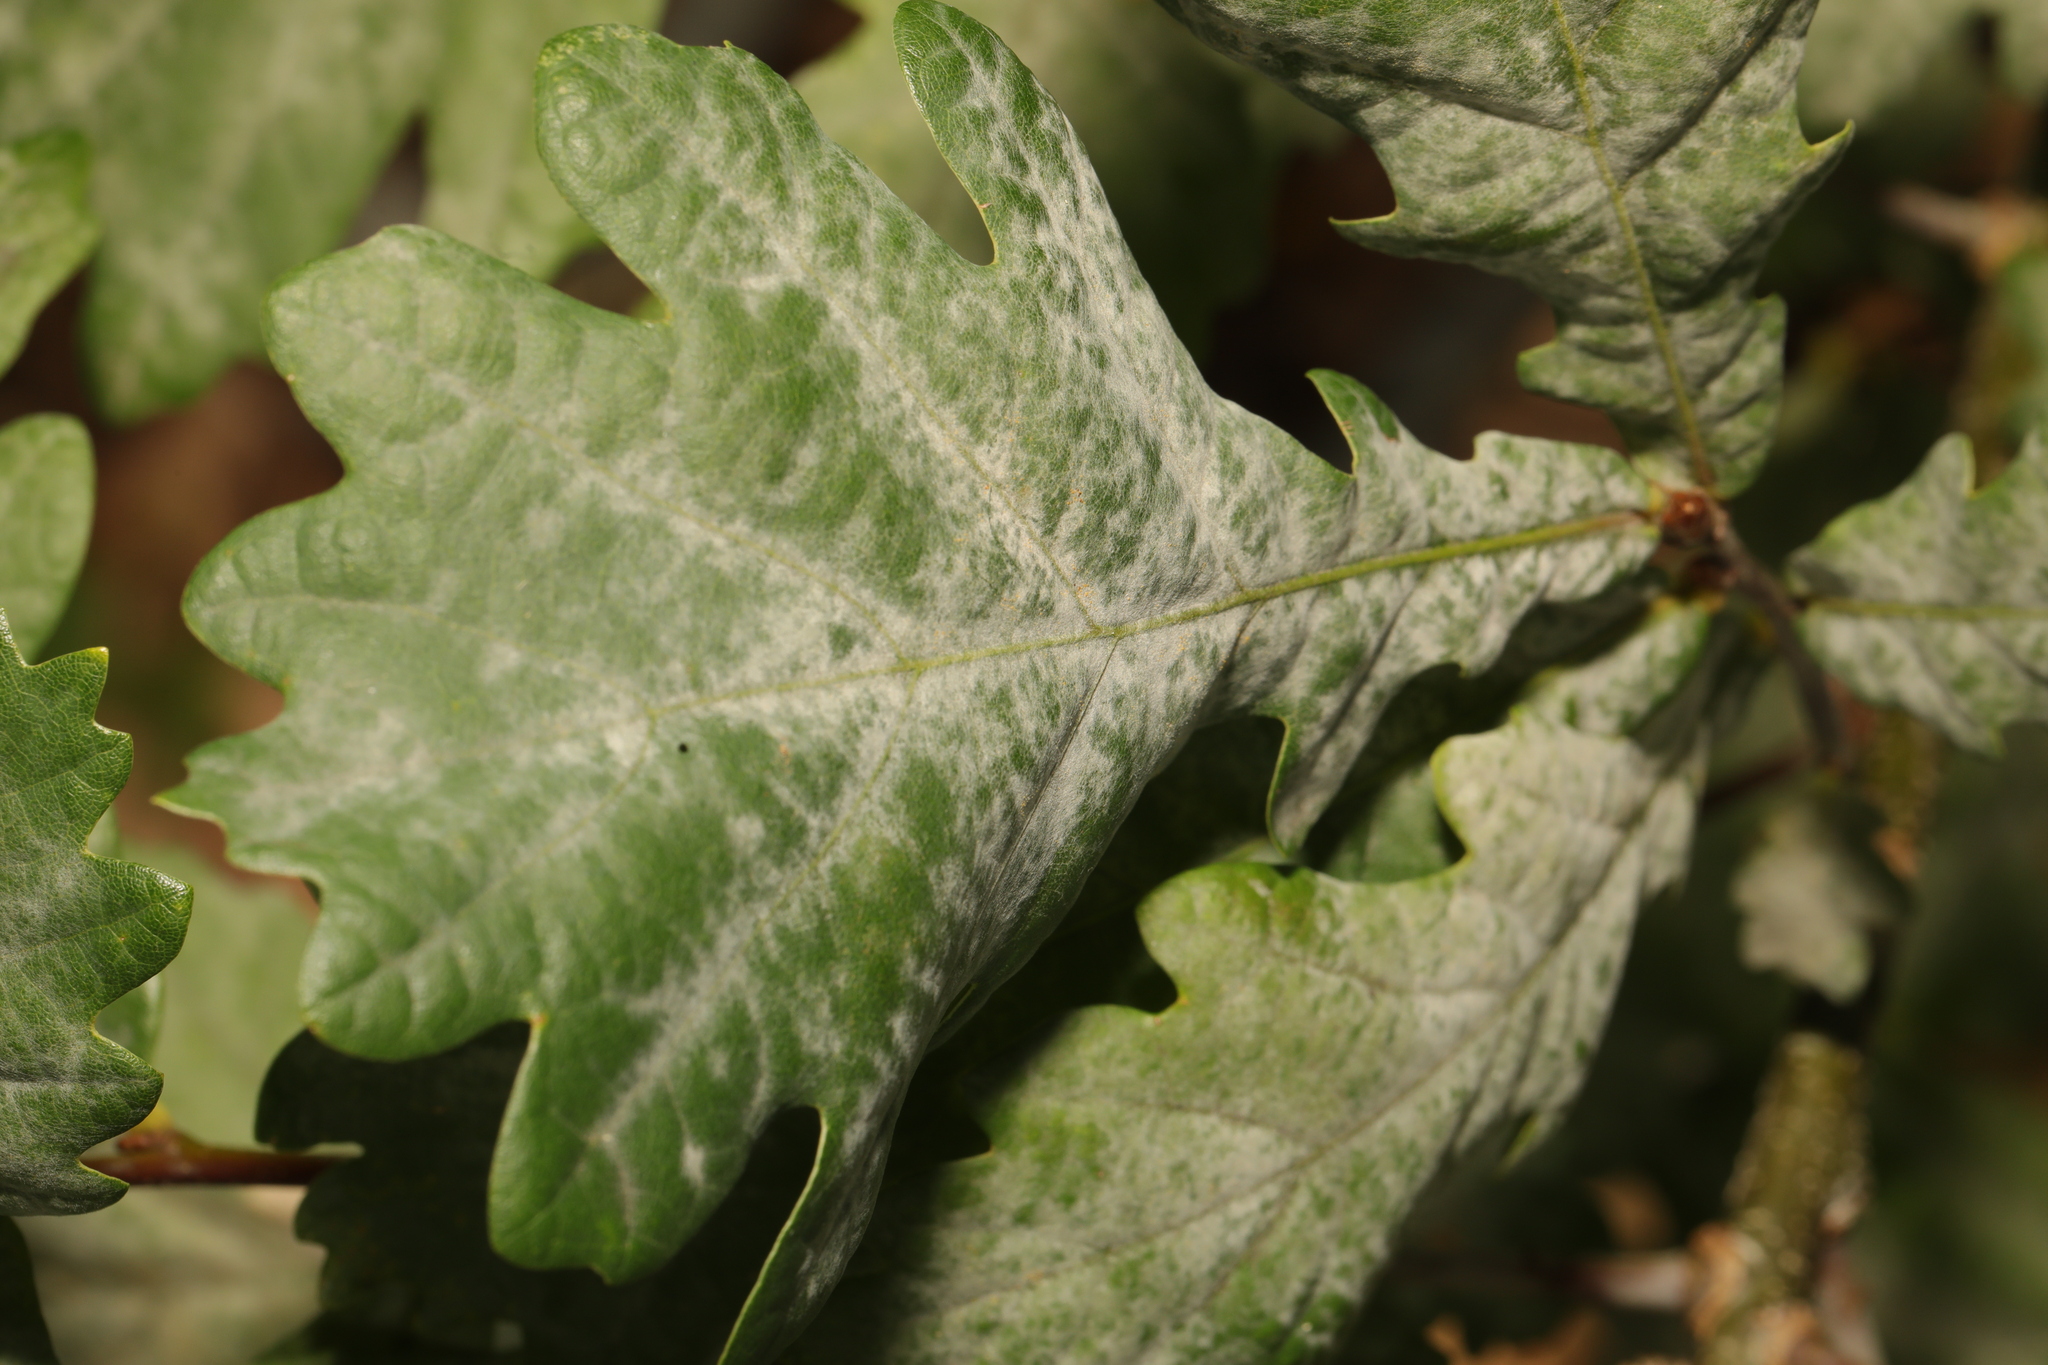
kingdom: Fungi
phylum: Ascomycota
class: Leotiomycetes
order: Helotiales
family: Erysiphaceae
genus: Erysiphe
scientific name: Erysiphe alphitoides
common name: Oak mildew
